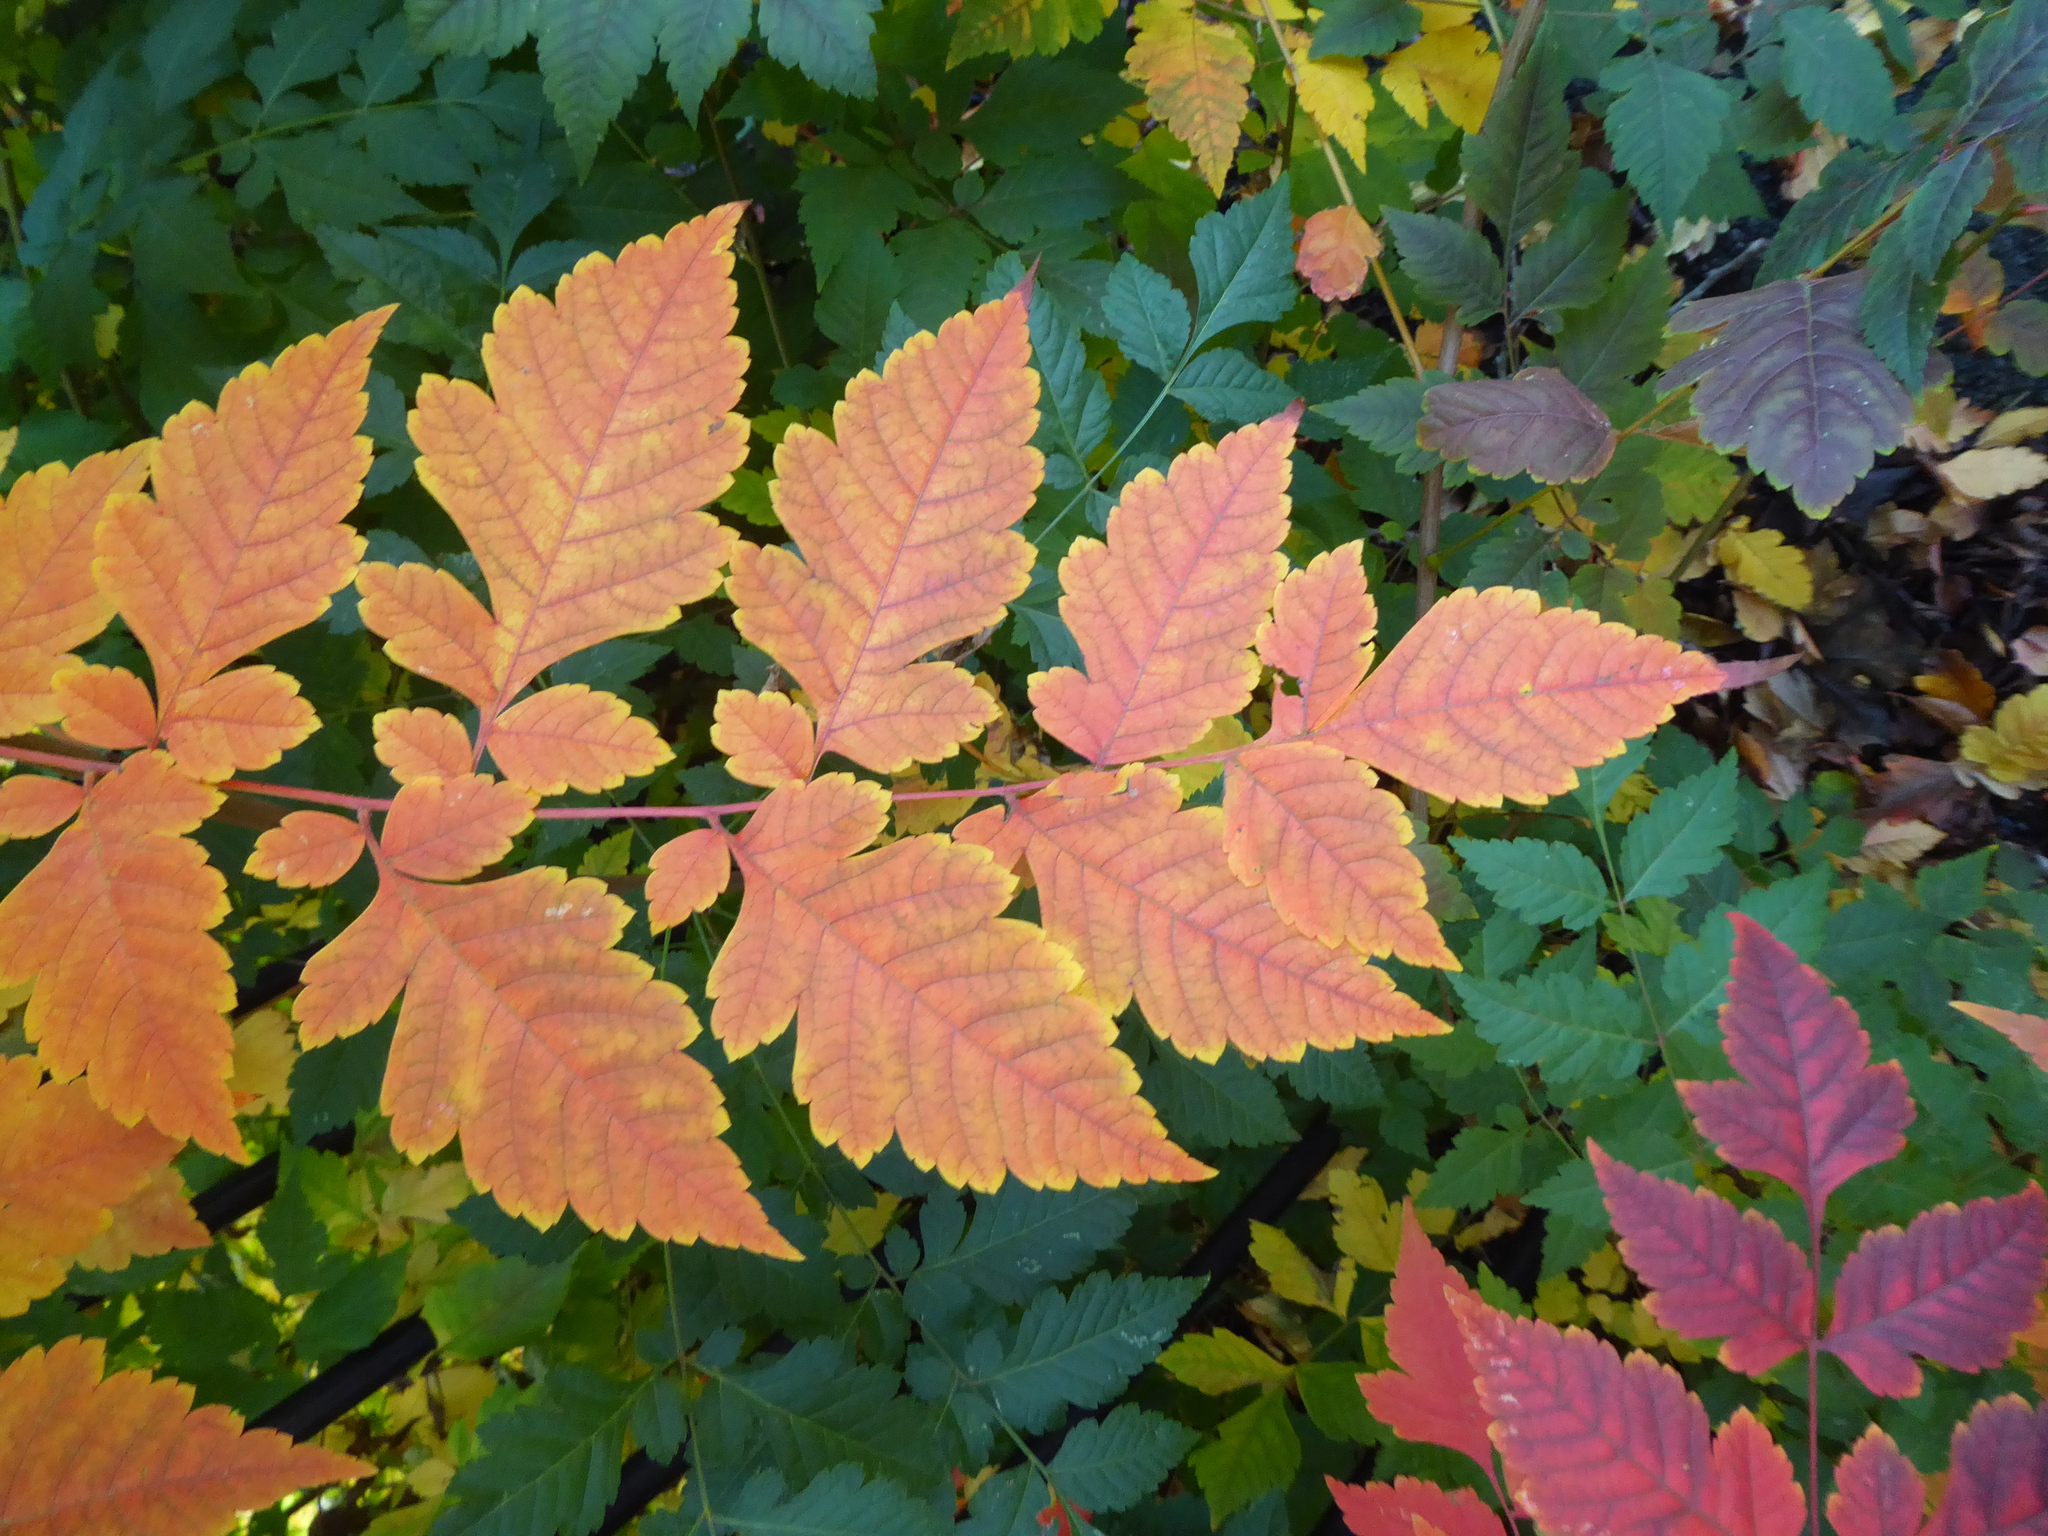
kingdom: Plantae
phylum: Tracheophyta
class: Magnoliopsida
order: Sapindales
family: Sapindaceae
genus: Koelreuteria
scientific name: Koelreuteria paniculata
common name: Pride-of-india
